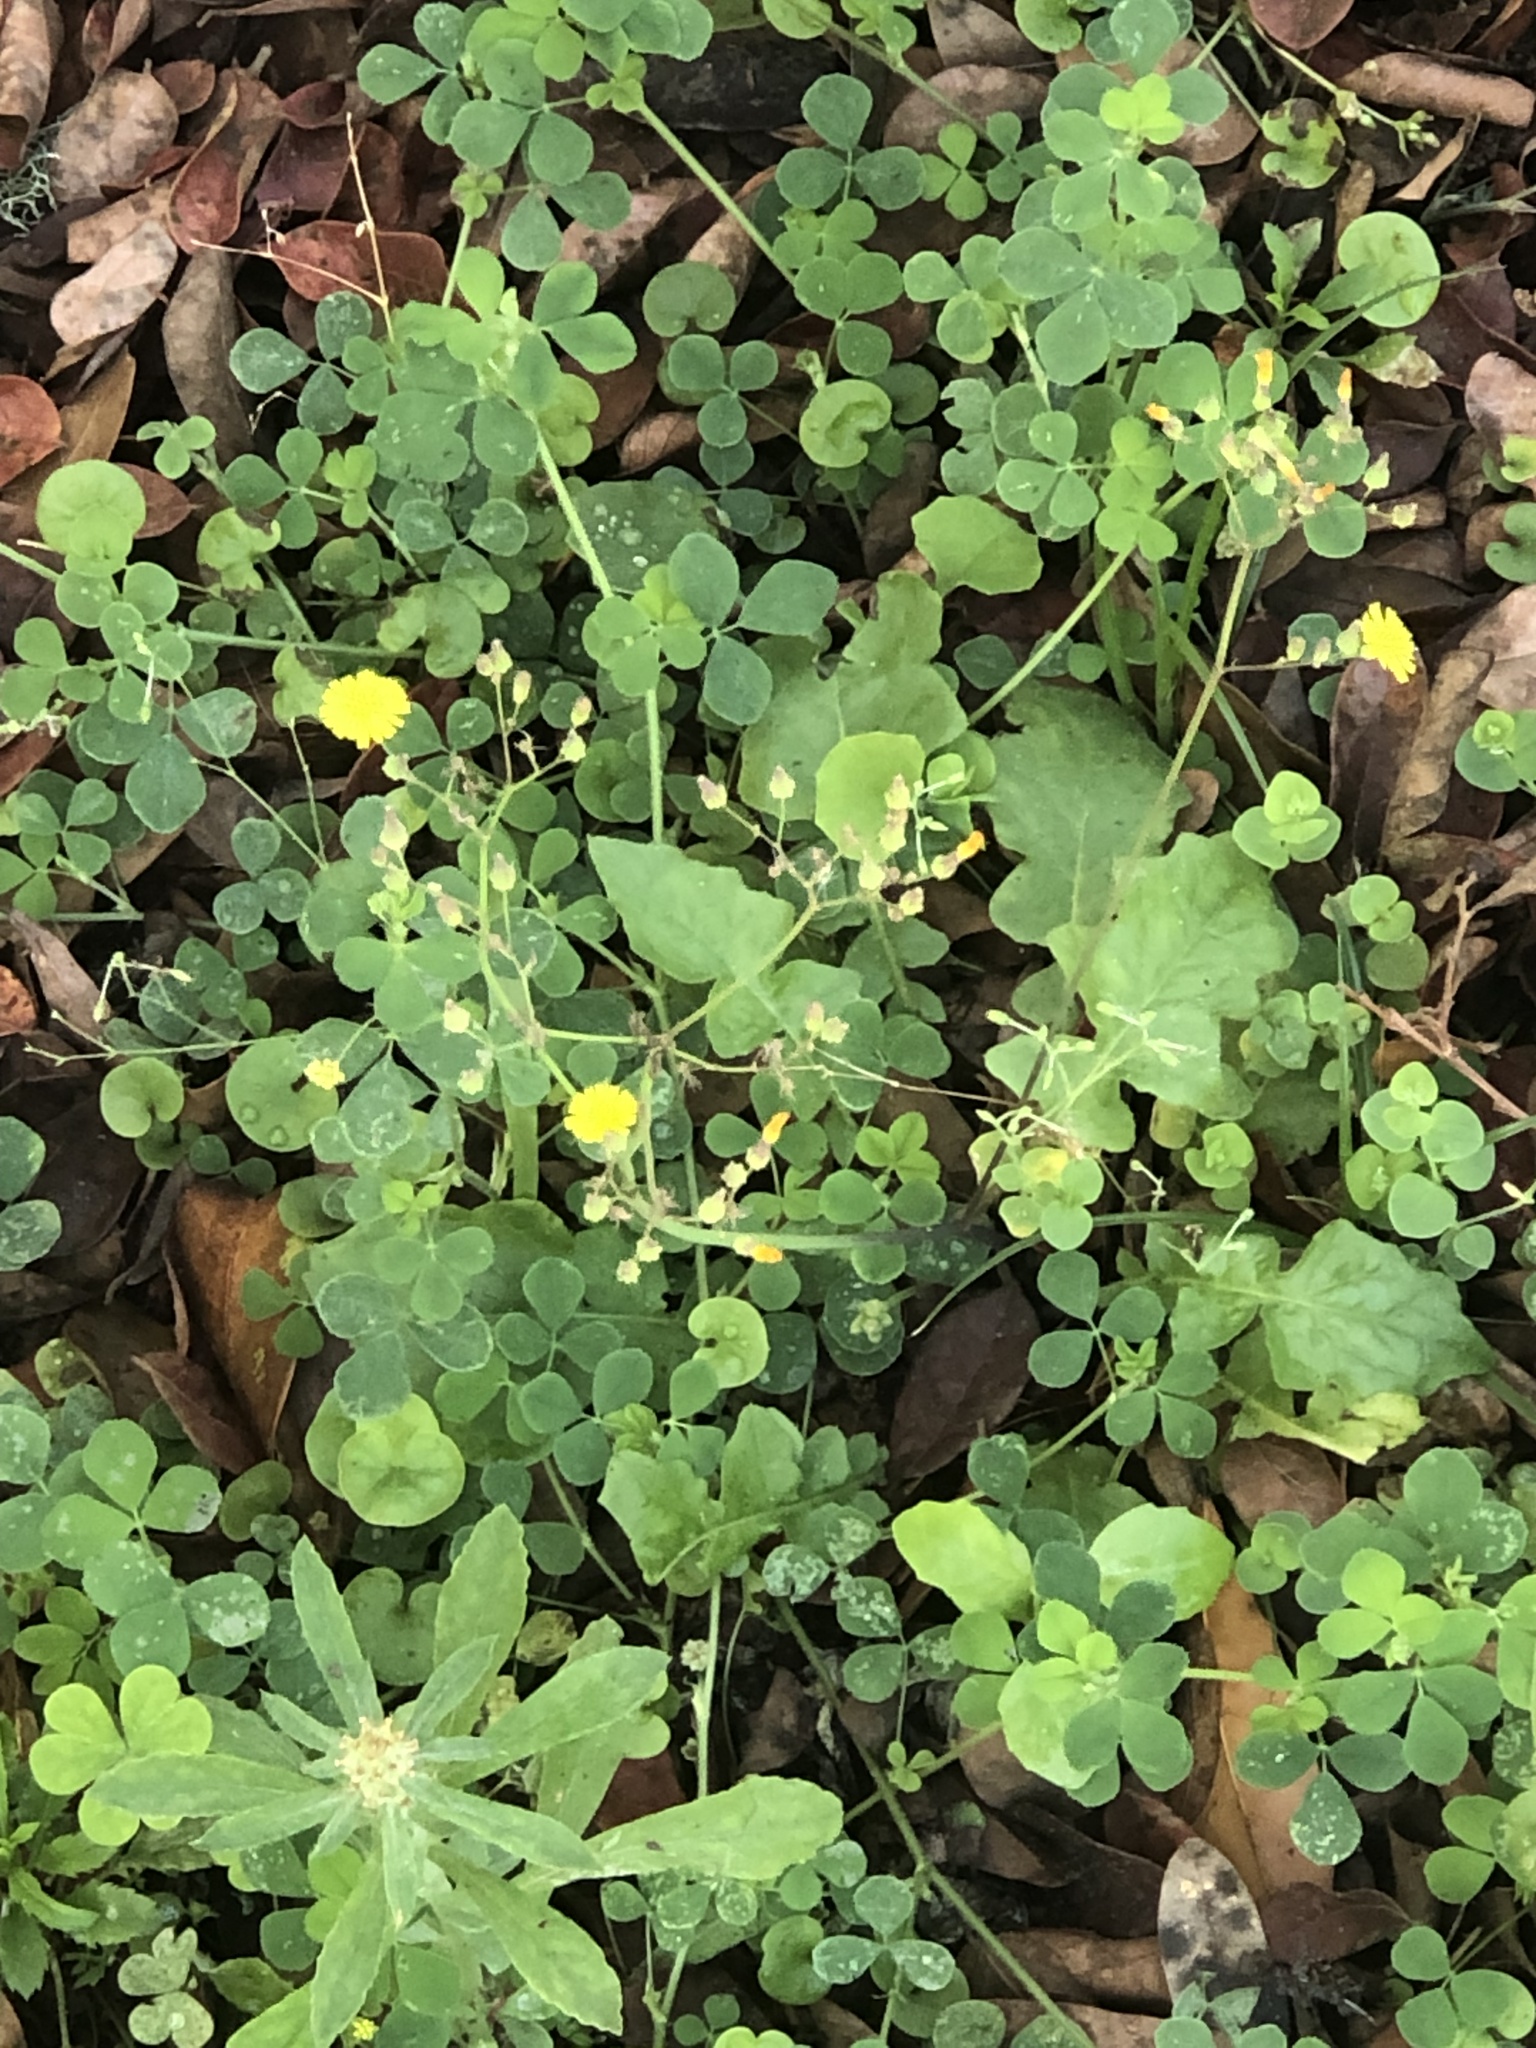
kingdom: Plantae
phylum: Tracheophyta
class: Magnoliopsida
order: Asterales
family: Asteraceae
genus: Youngia
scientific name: Youngia japonica
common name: Oriental false hawksbeard
